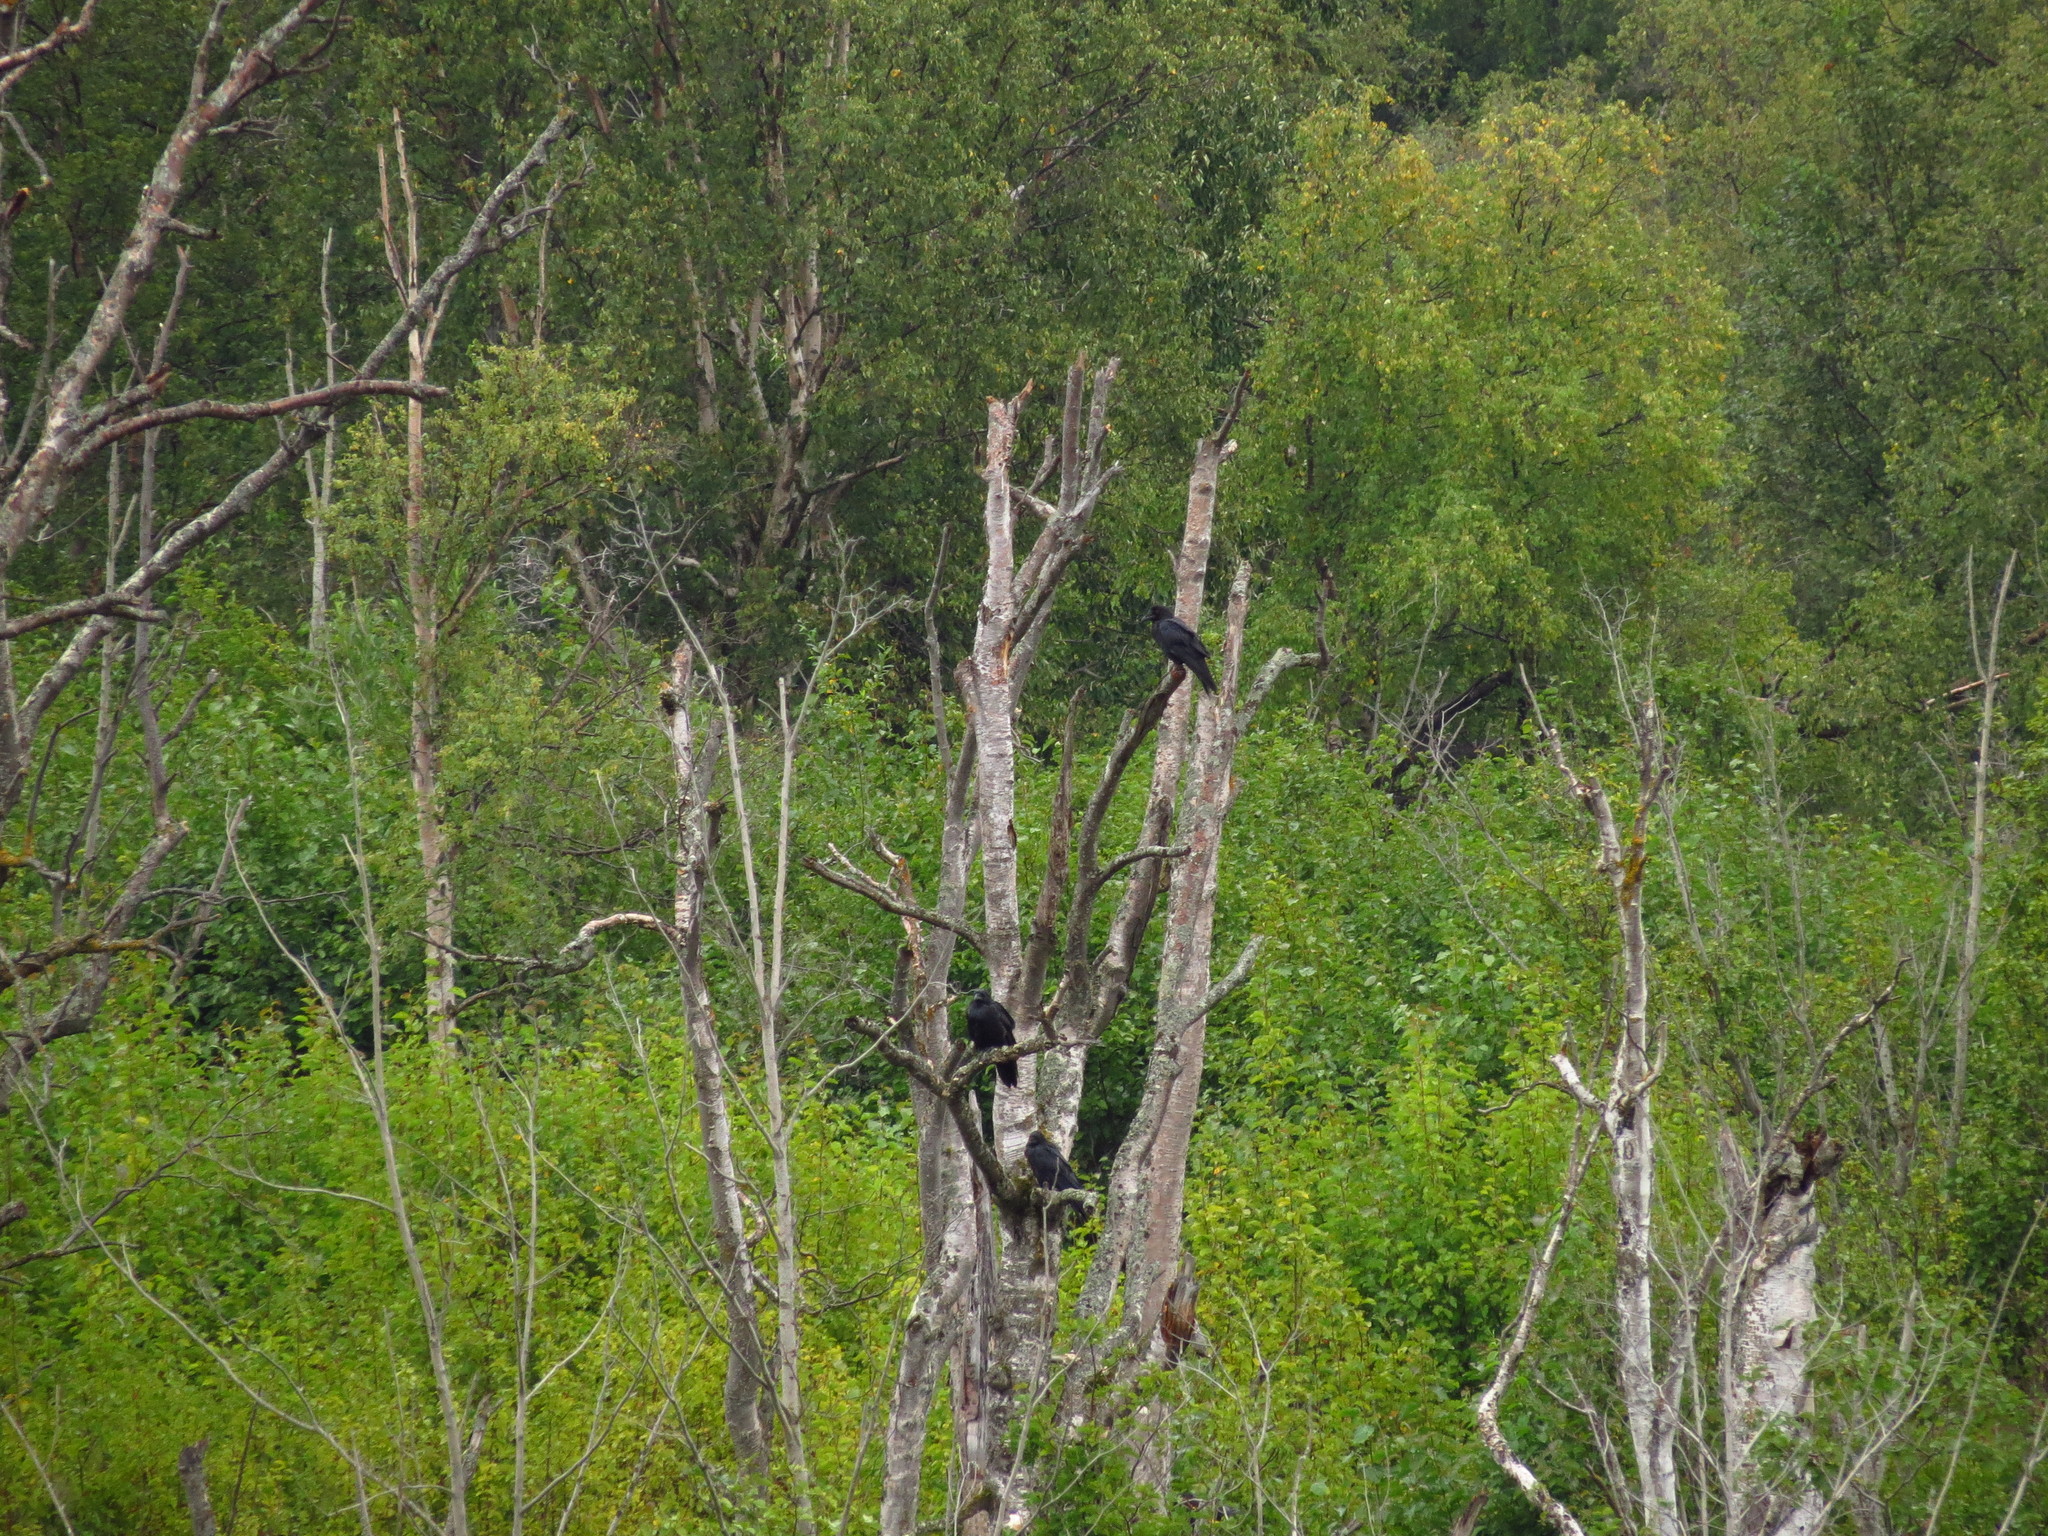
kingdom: Animalia
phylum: Chordata
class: Aves
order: Passeriformes
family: Corvidae
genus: Corvus
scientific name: Corvus corax
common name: Common raven
